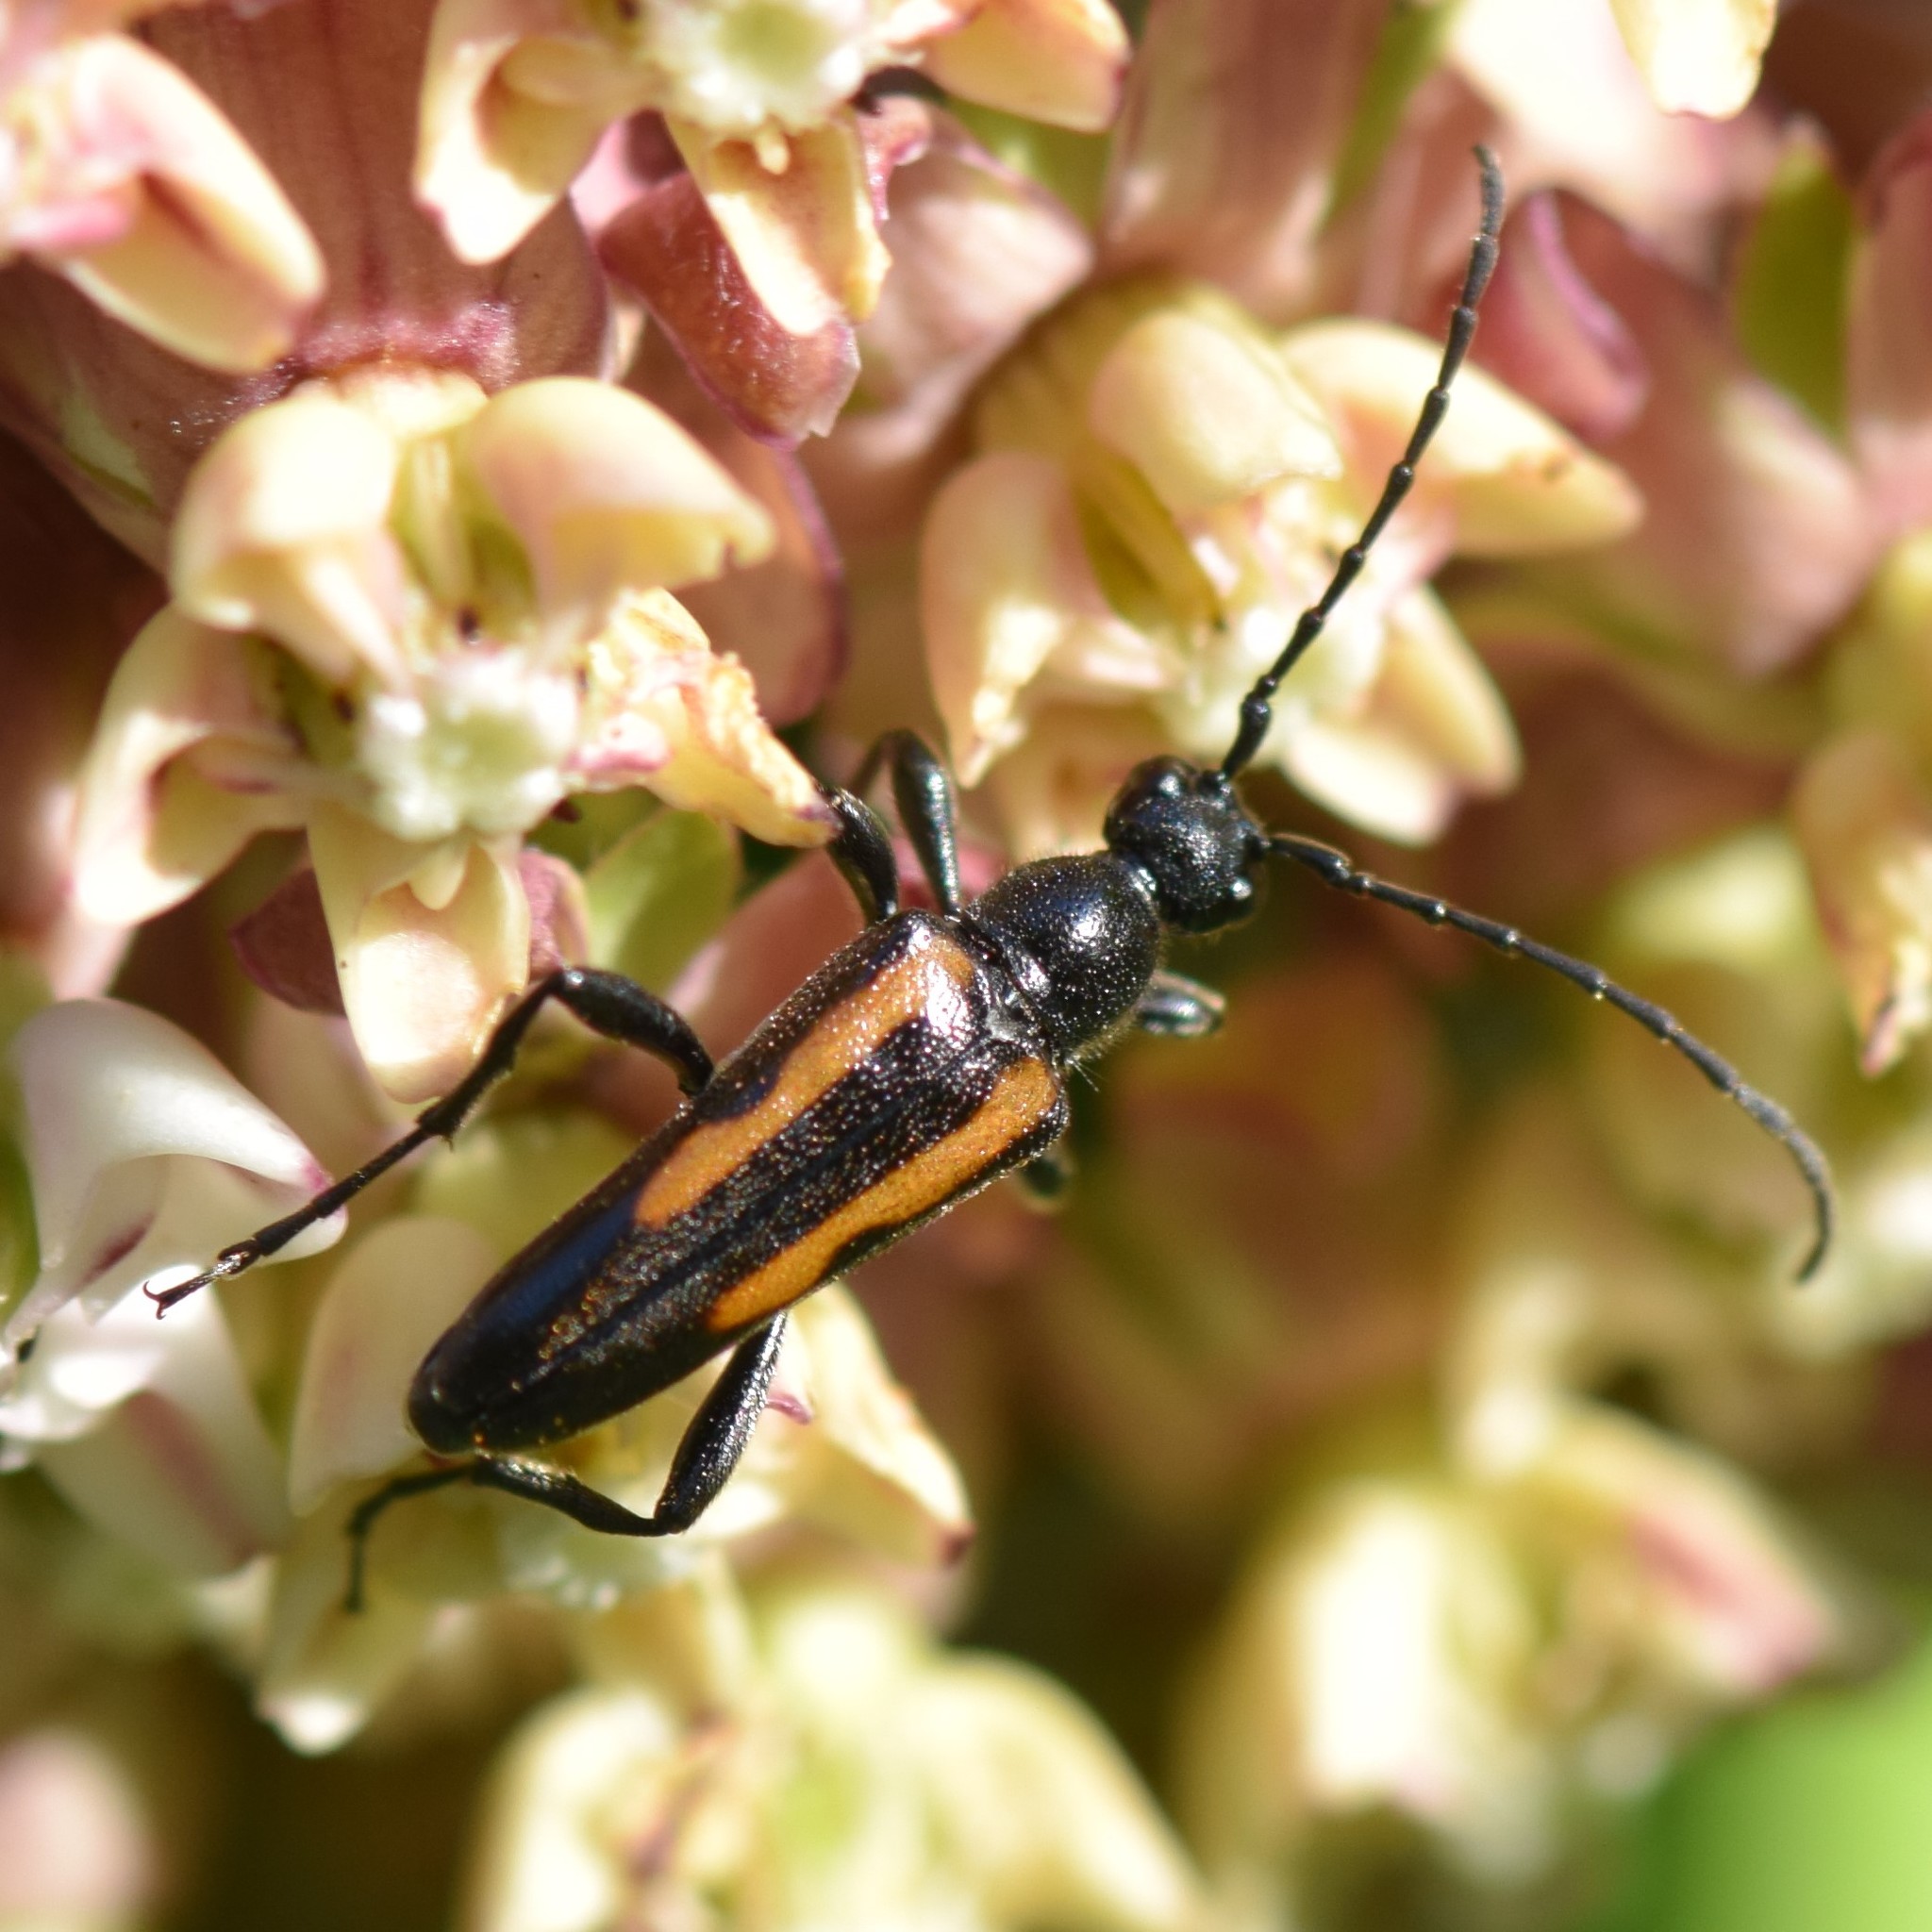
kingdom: Animalia
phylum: Arthropoda
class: Insecta
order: Coleoptera
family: Cerambycidae
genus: Strangalepta
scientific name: Strangalepta abbreviata
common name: Strangalepta flower longhorn beetle
